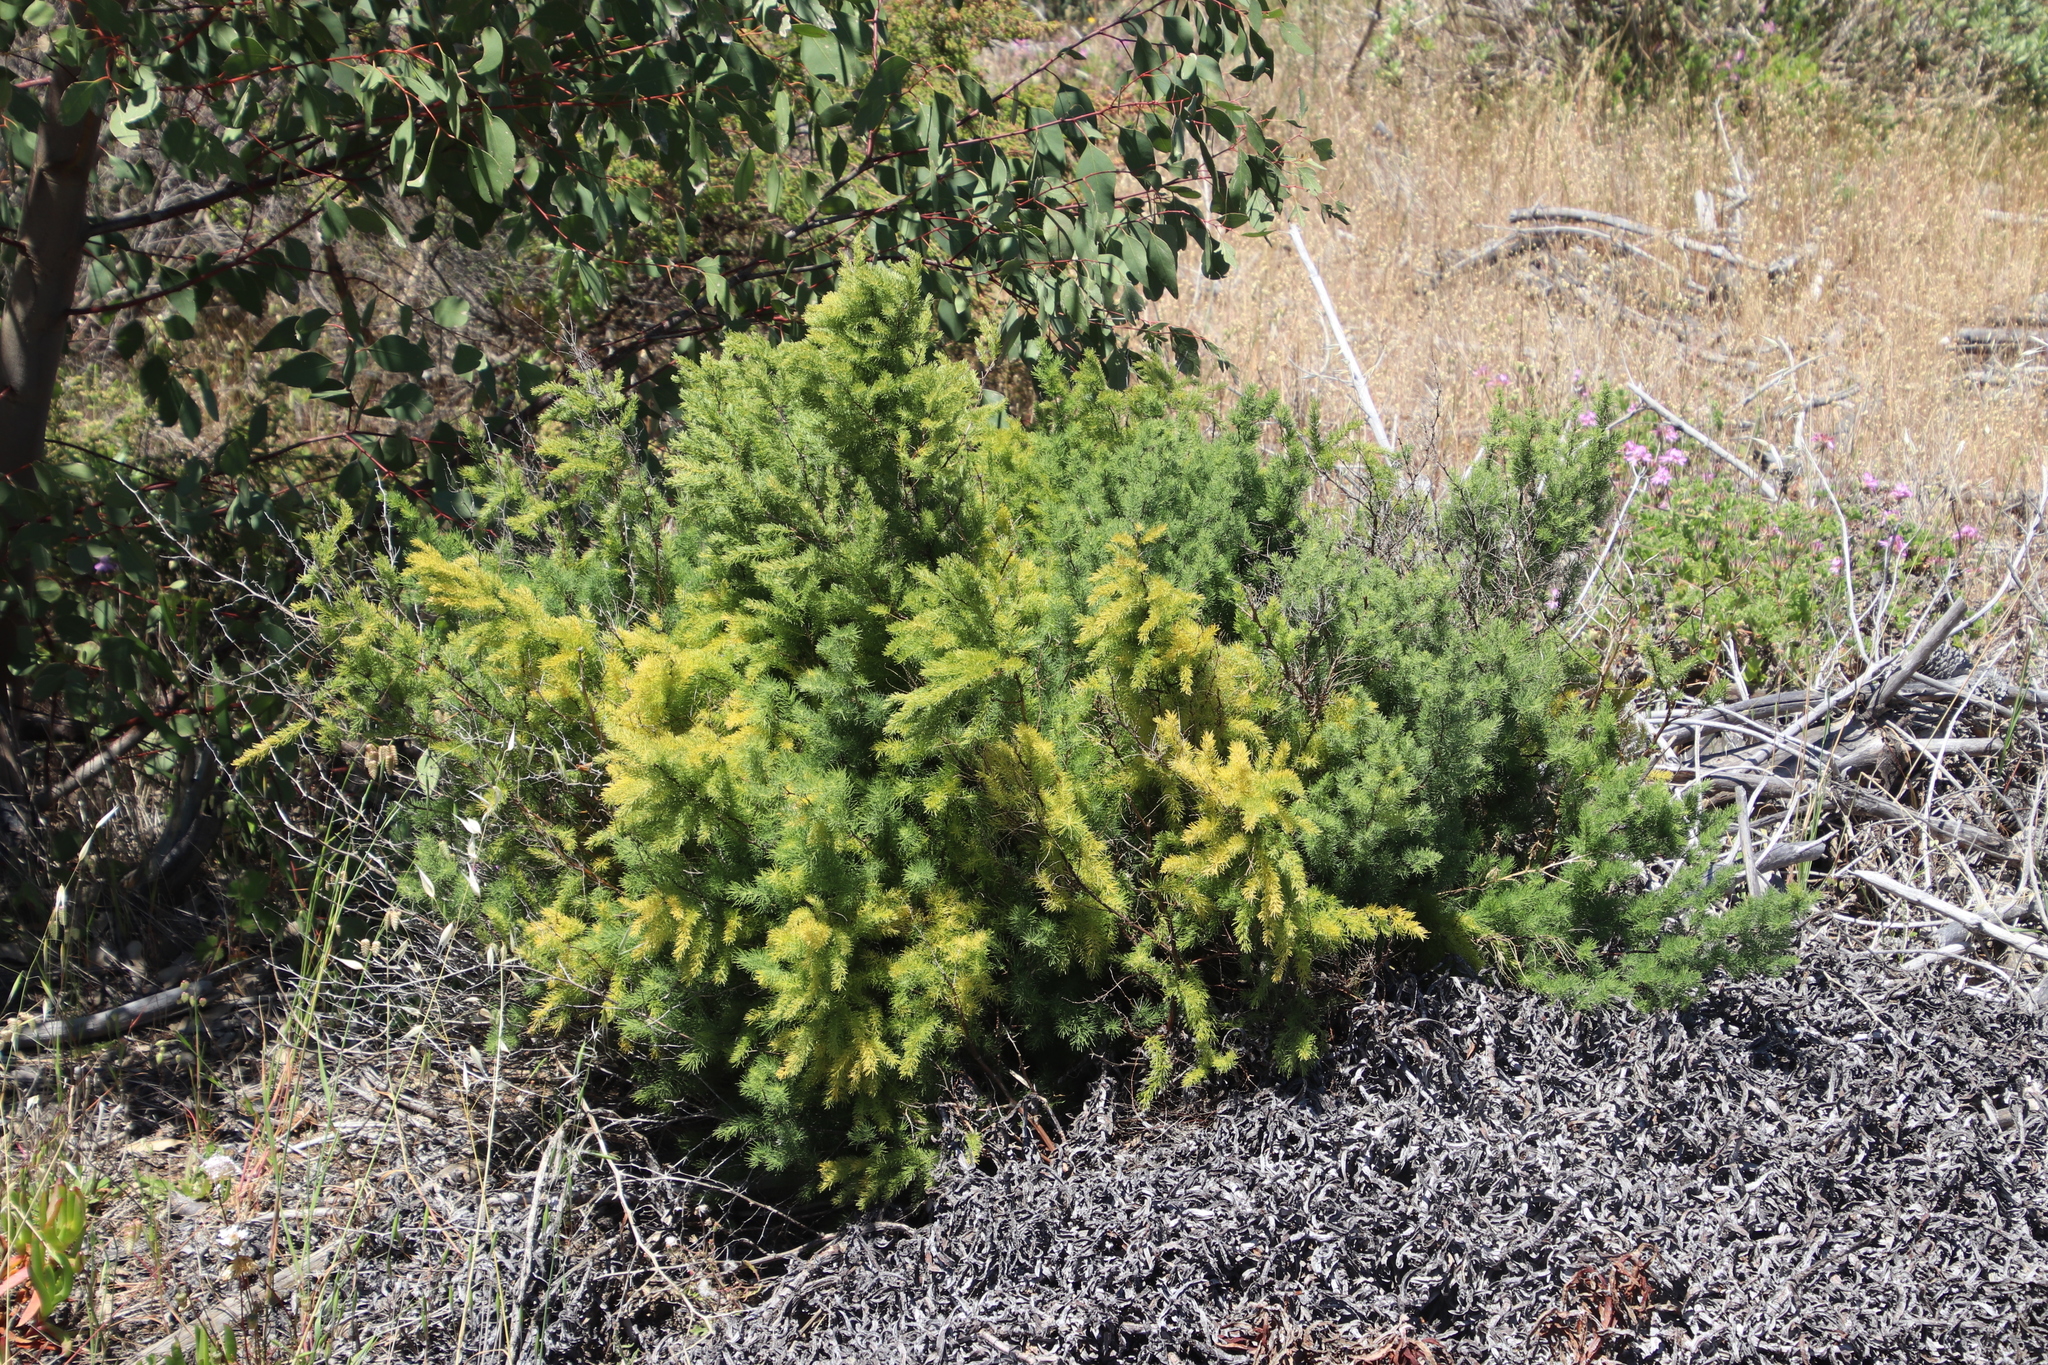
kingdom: Plantae
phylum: Tracheophyta
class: Liliopsida
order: Asparagales
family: Asparagaceae
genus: Asparagus
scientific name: Asparagus rubicundus
